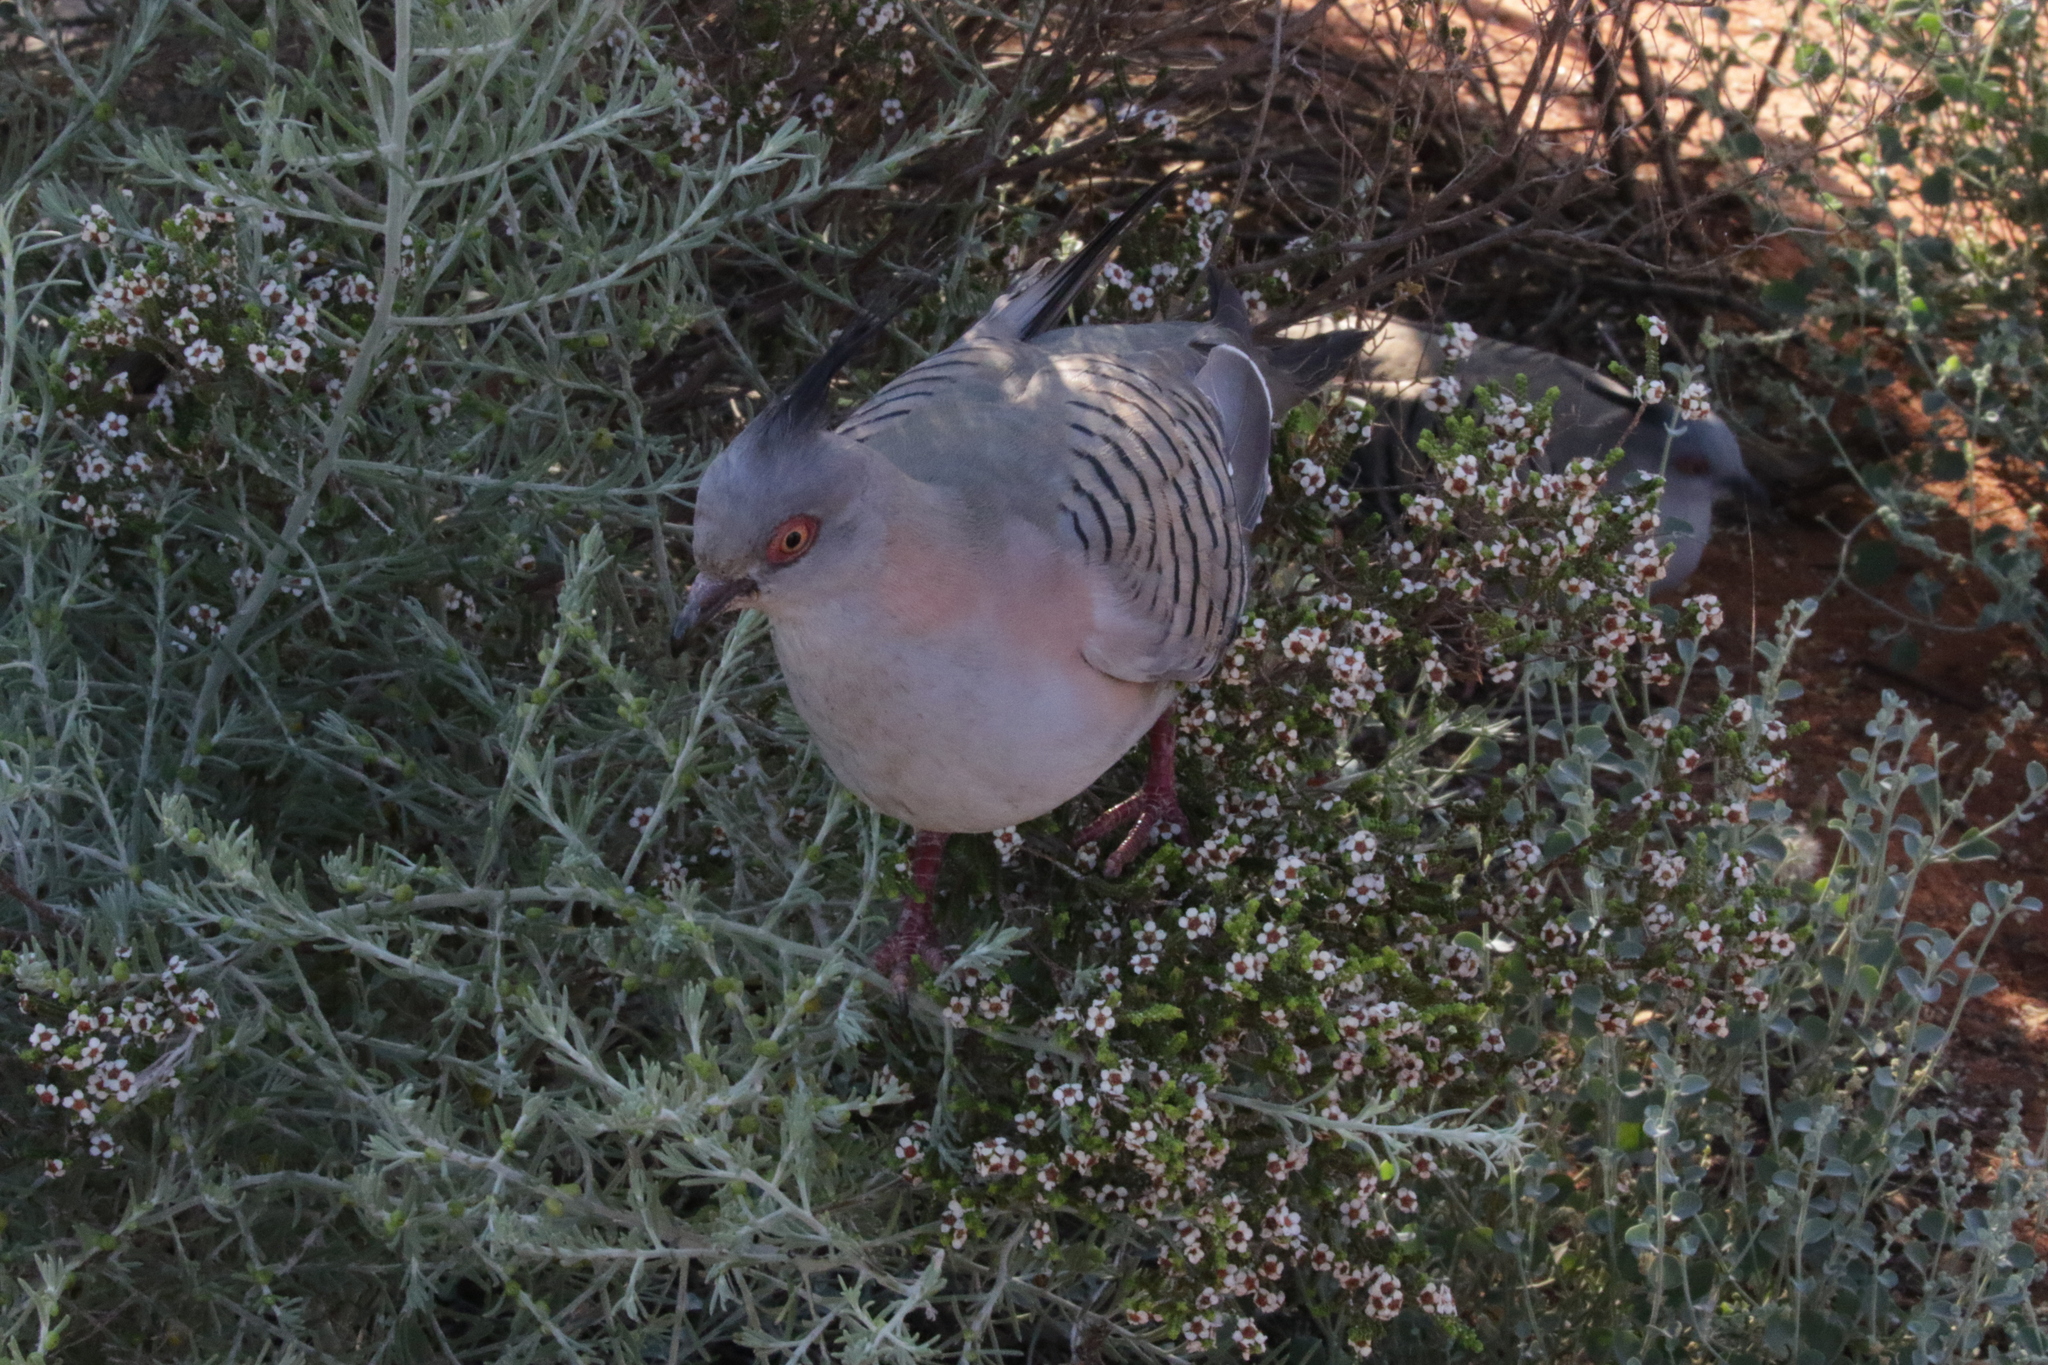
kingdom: Animalia
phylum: Chordata
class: Aves
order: Columbiformes
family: Columbidae
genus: Ocyphaps
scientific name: Ocyphaps lophotes
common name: Crested pigeon
